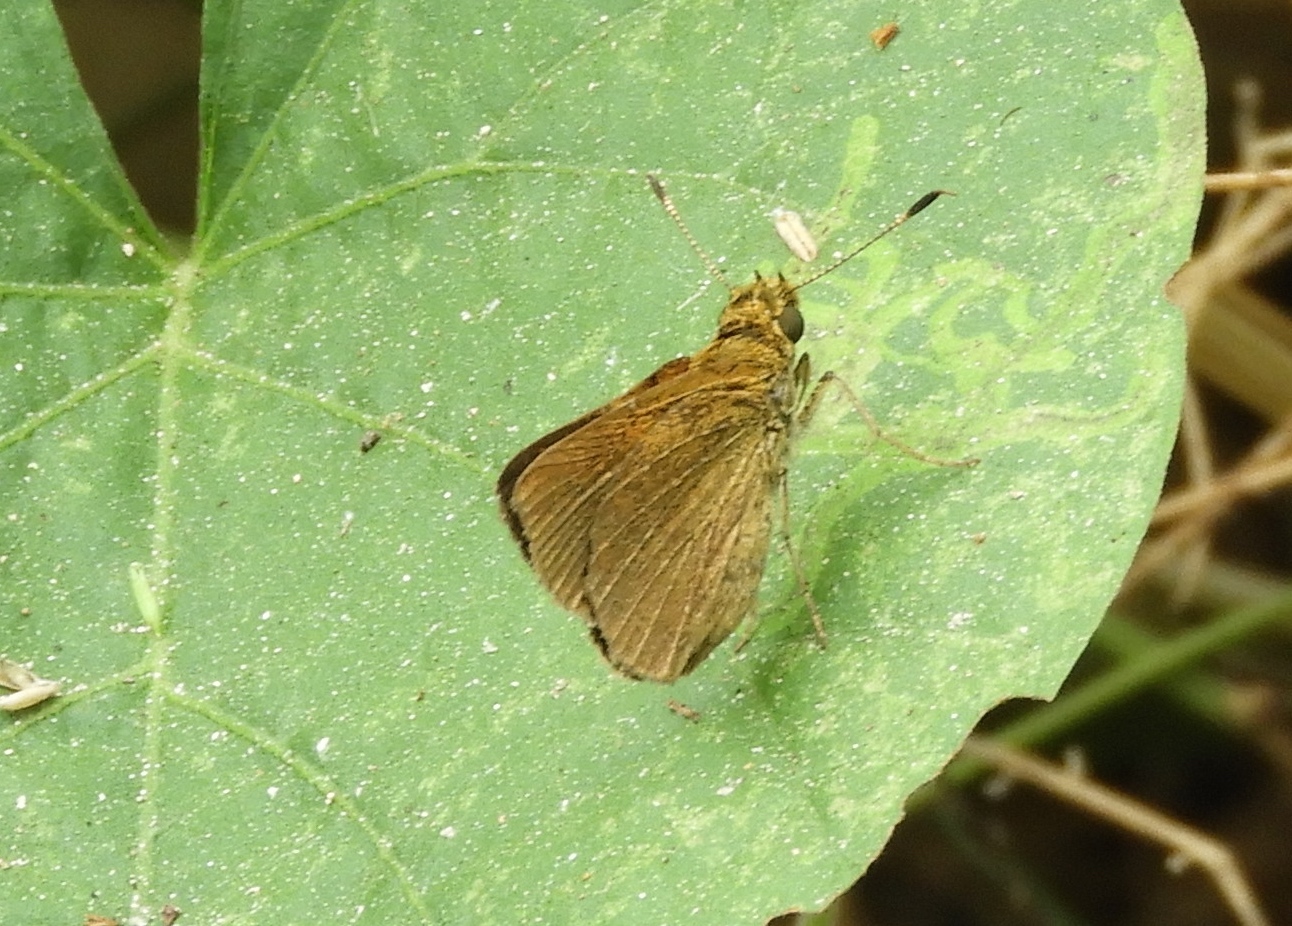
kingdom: Animalia
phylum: Arthropoda
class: Insecta
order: Lepidoptera
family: Hesperiidae
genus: Corticea
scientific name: Corticea corticea
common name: Redundant skipper
